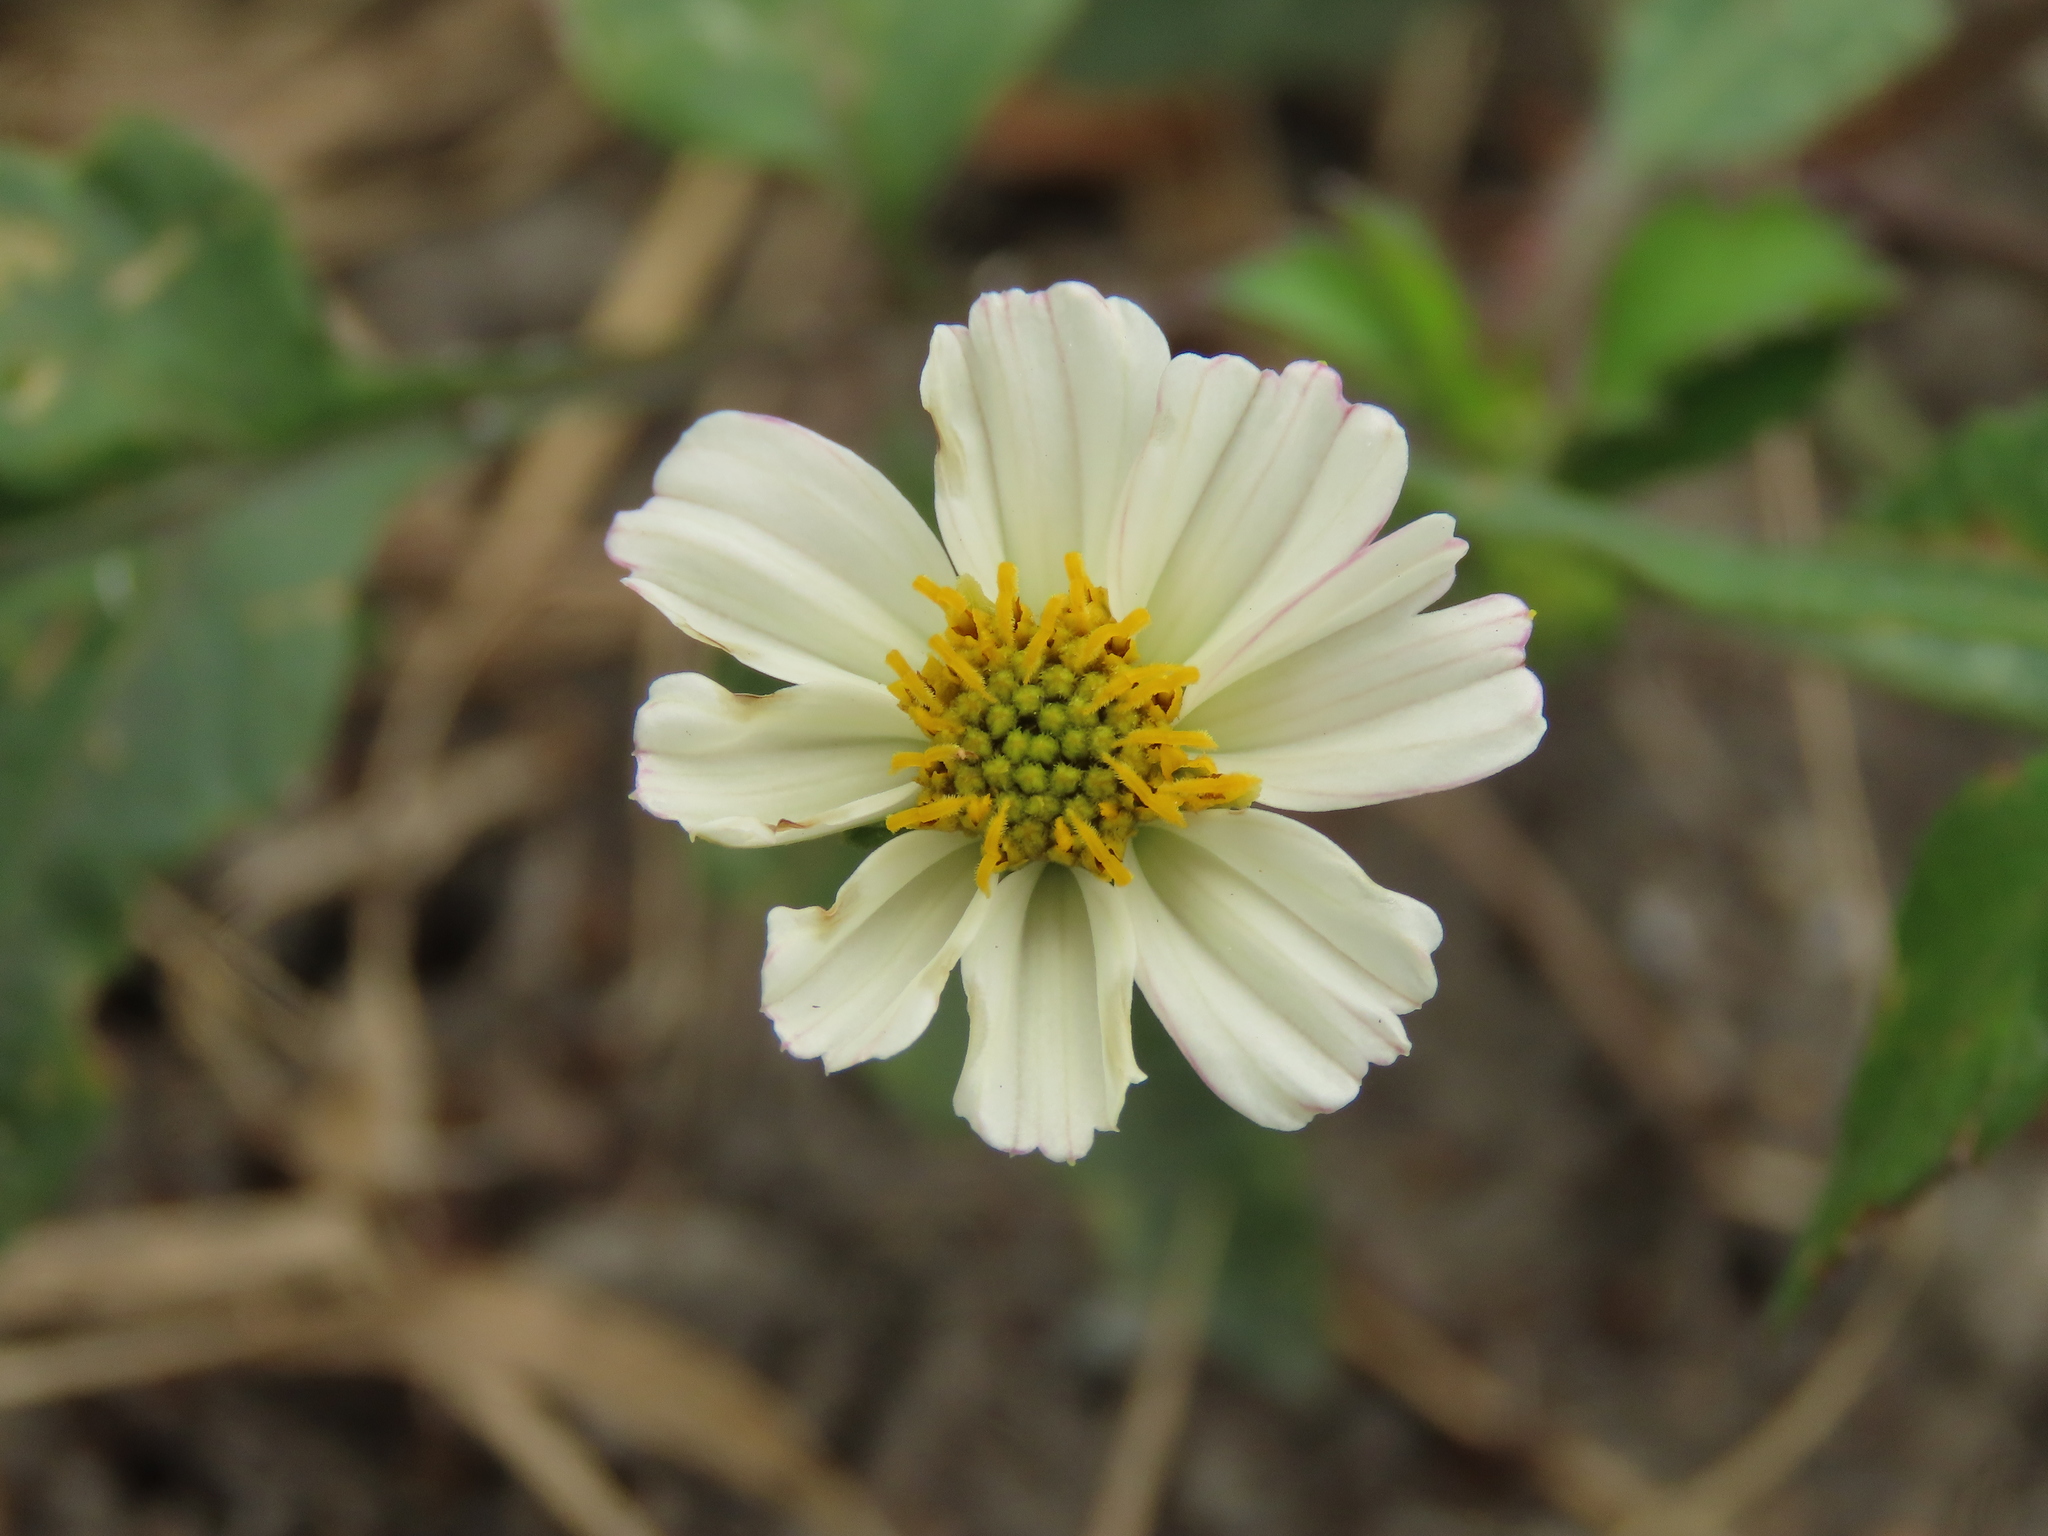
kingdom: Plantae
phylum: Tracheophyta
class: Magnoliopsida
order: Asterales
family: Asteraceae
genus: Bidens
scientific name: Bidens alba
